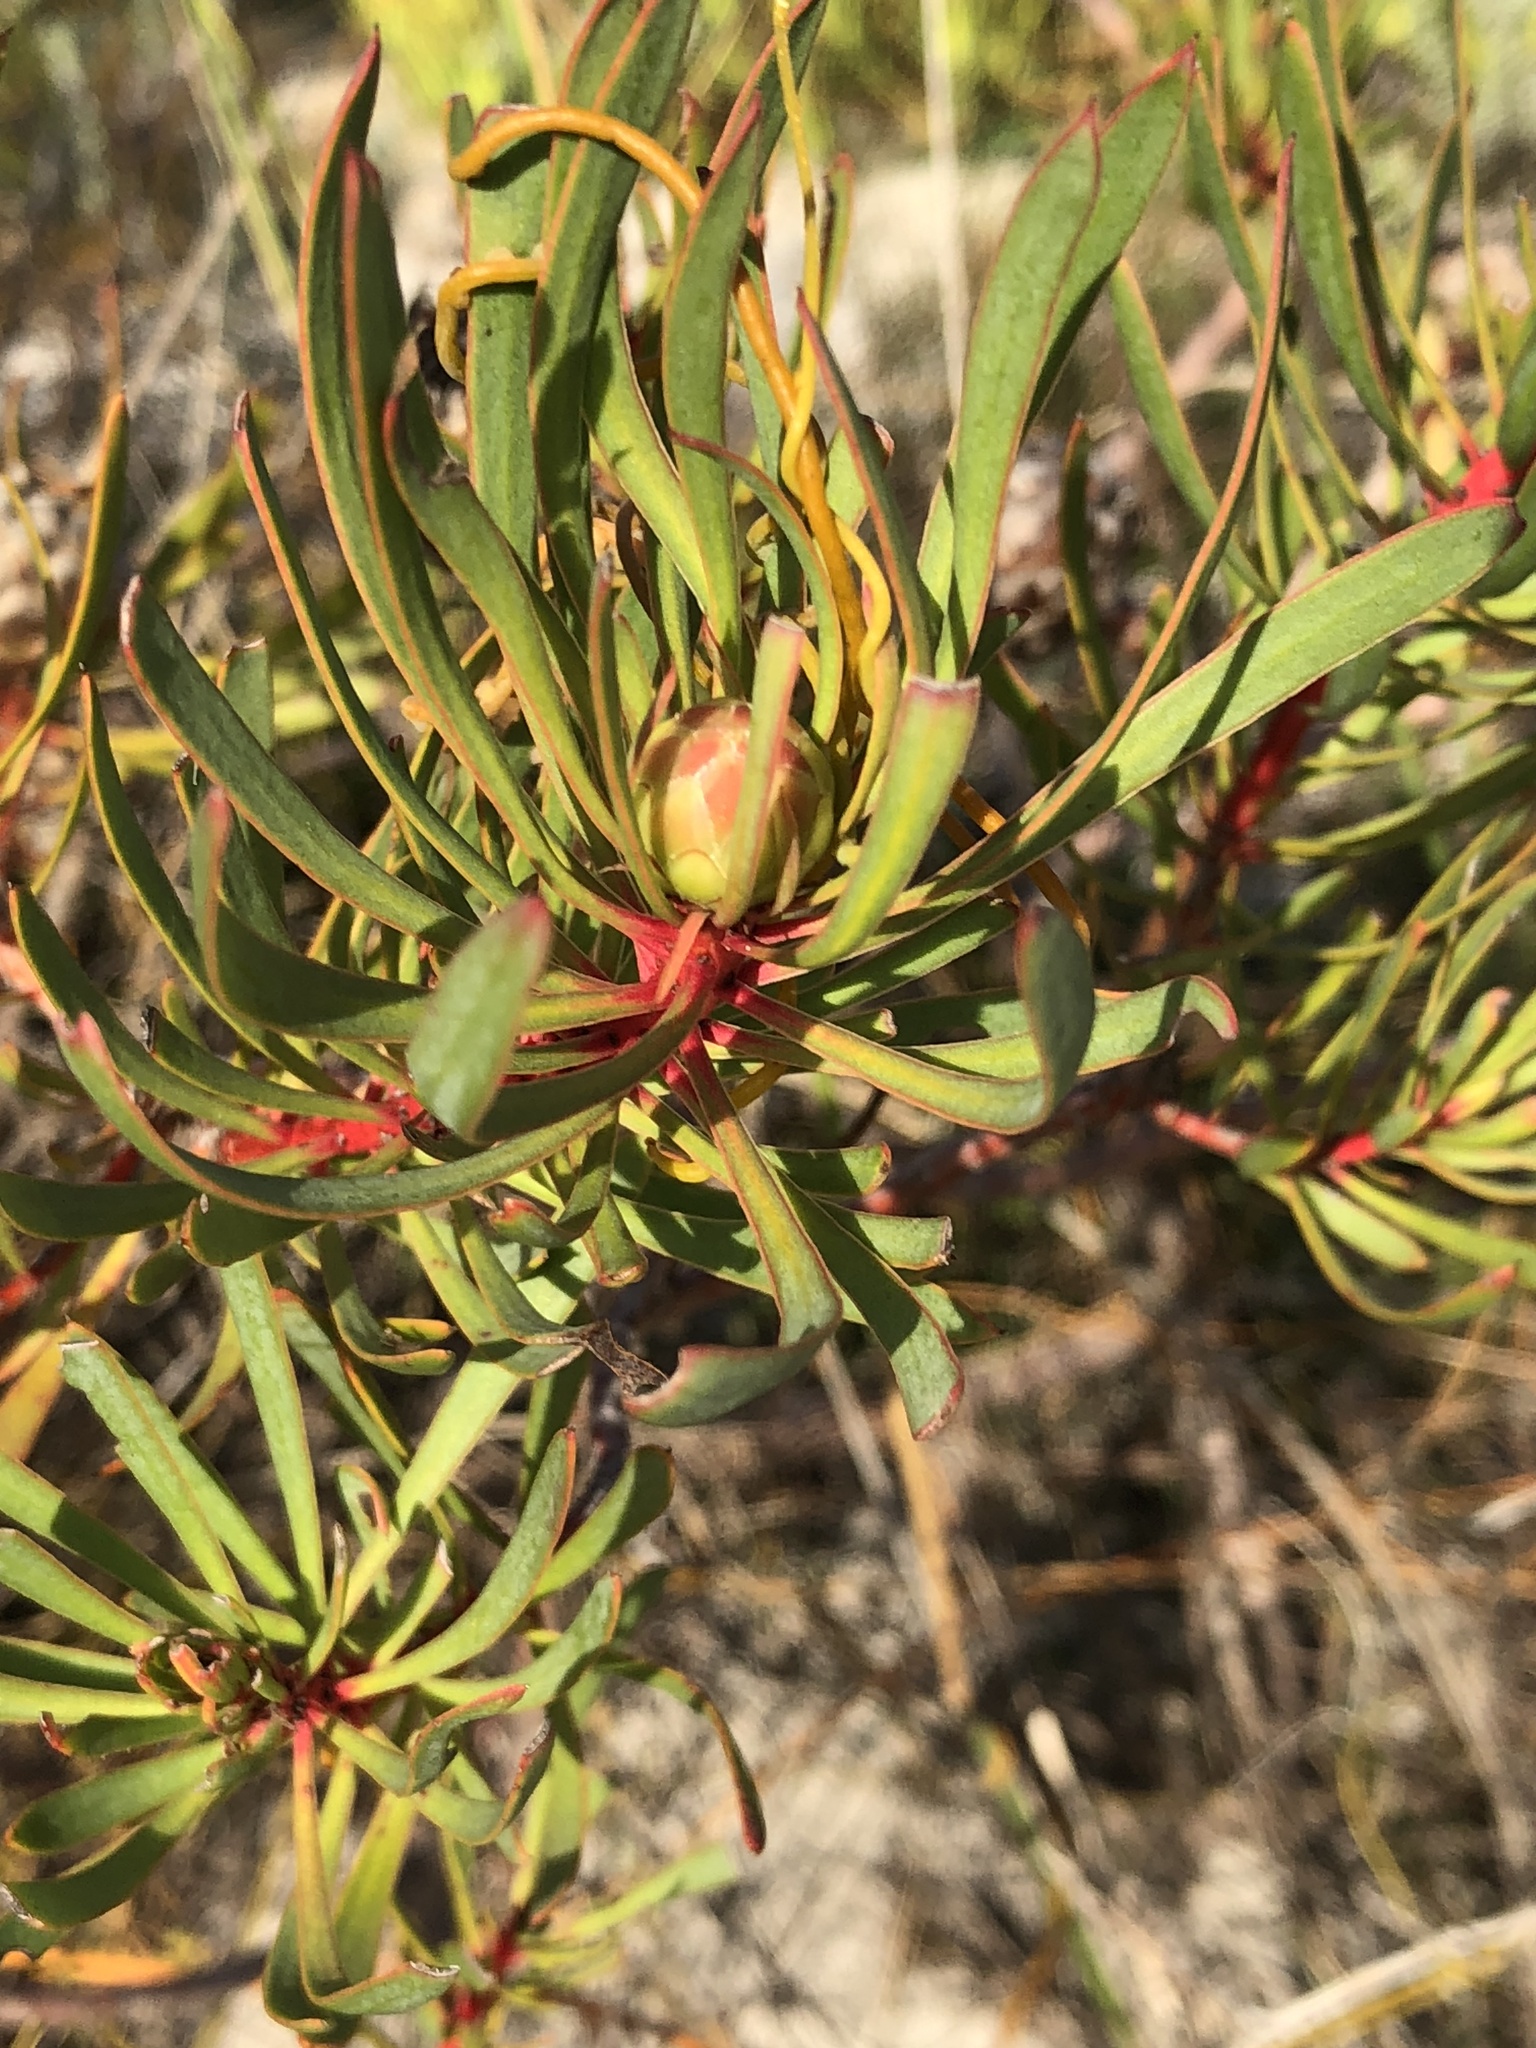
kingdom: Plantae
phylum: Tracheophyta
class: Magnoliopsida
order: Proteales
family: Proteaceae
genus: Protea
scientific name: Protea scolymocephala
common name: Thistle sugarbush
